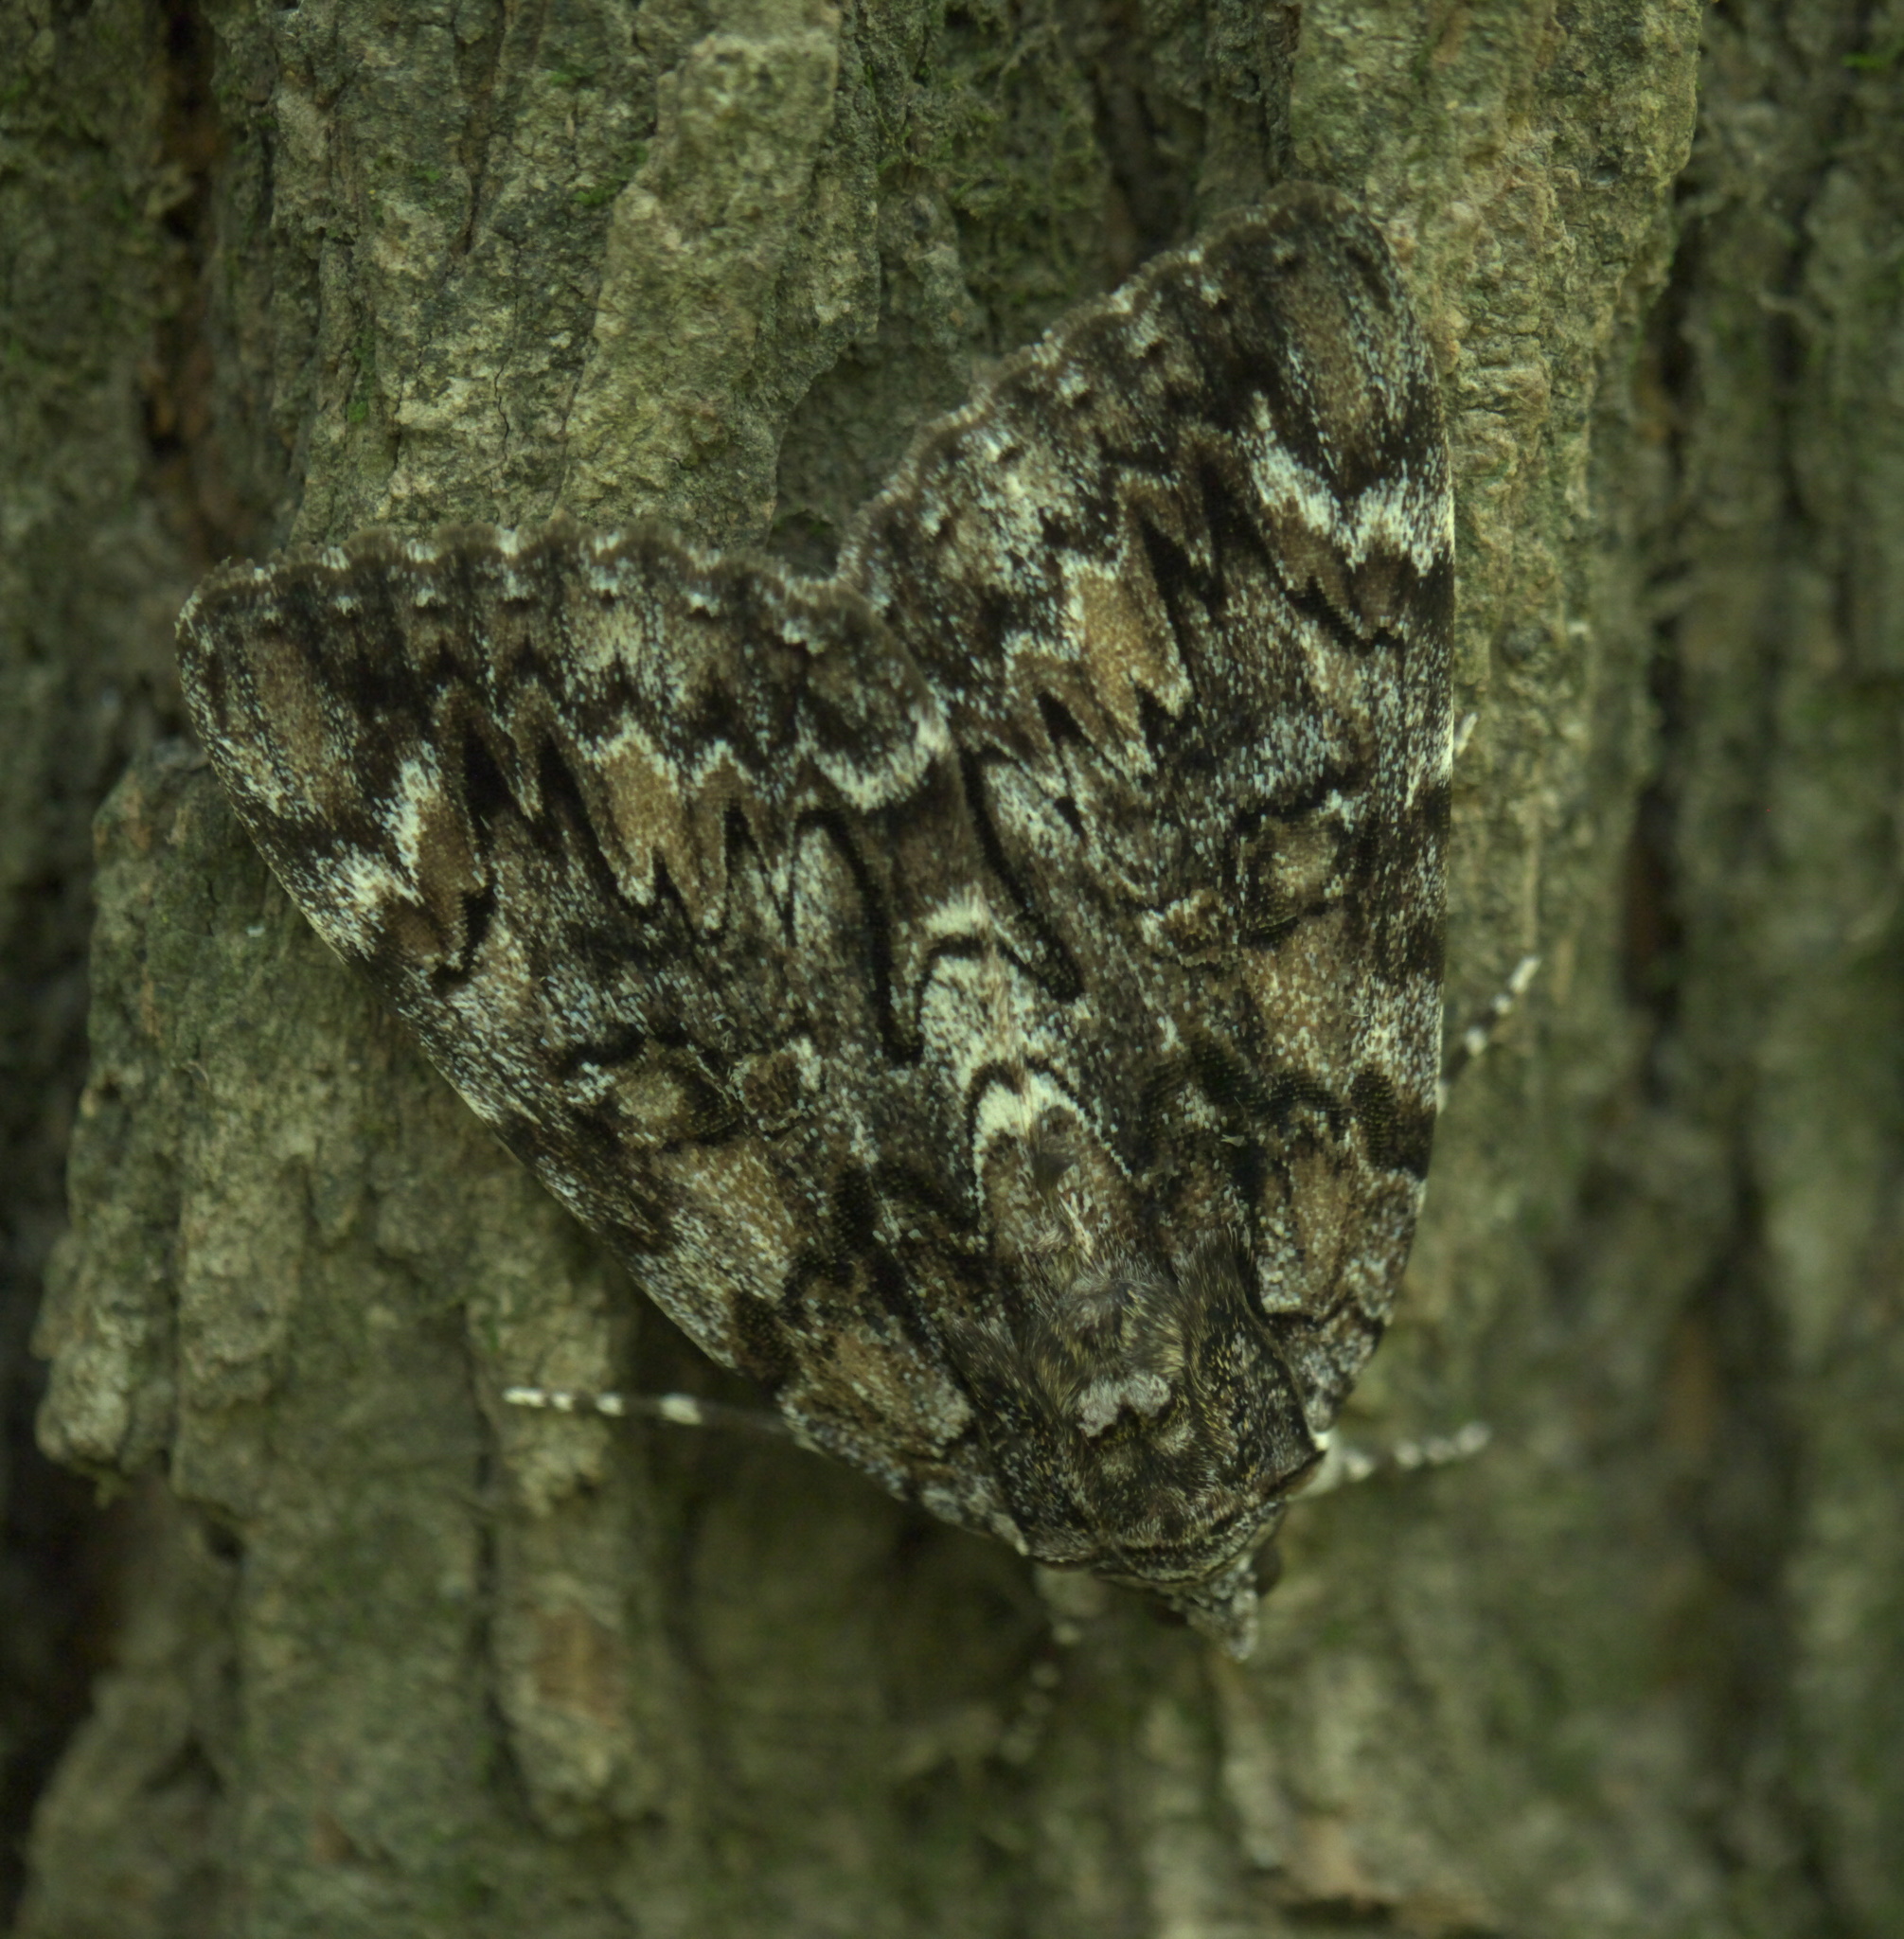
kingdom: Animalia
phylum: Arthropoda
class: Insecta
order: Lepidoptera
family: Erebidae
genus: Catocala
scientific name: Catocala lacrymosa
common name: Tearful underwing
